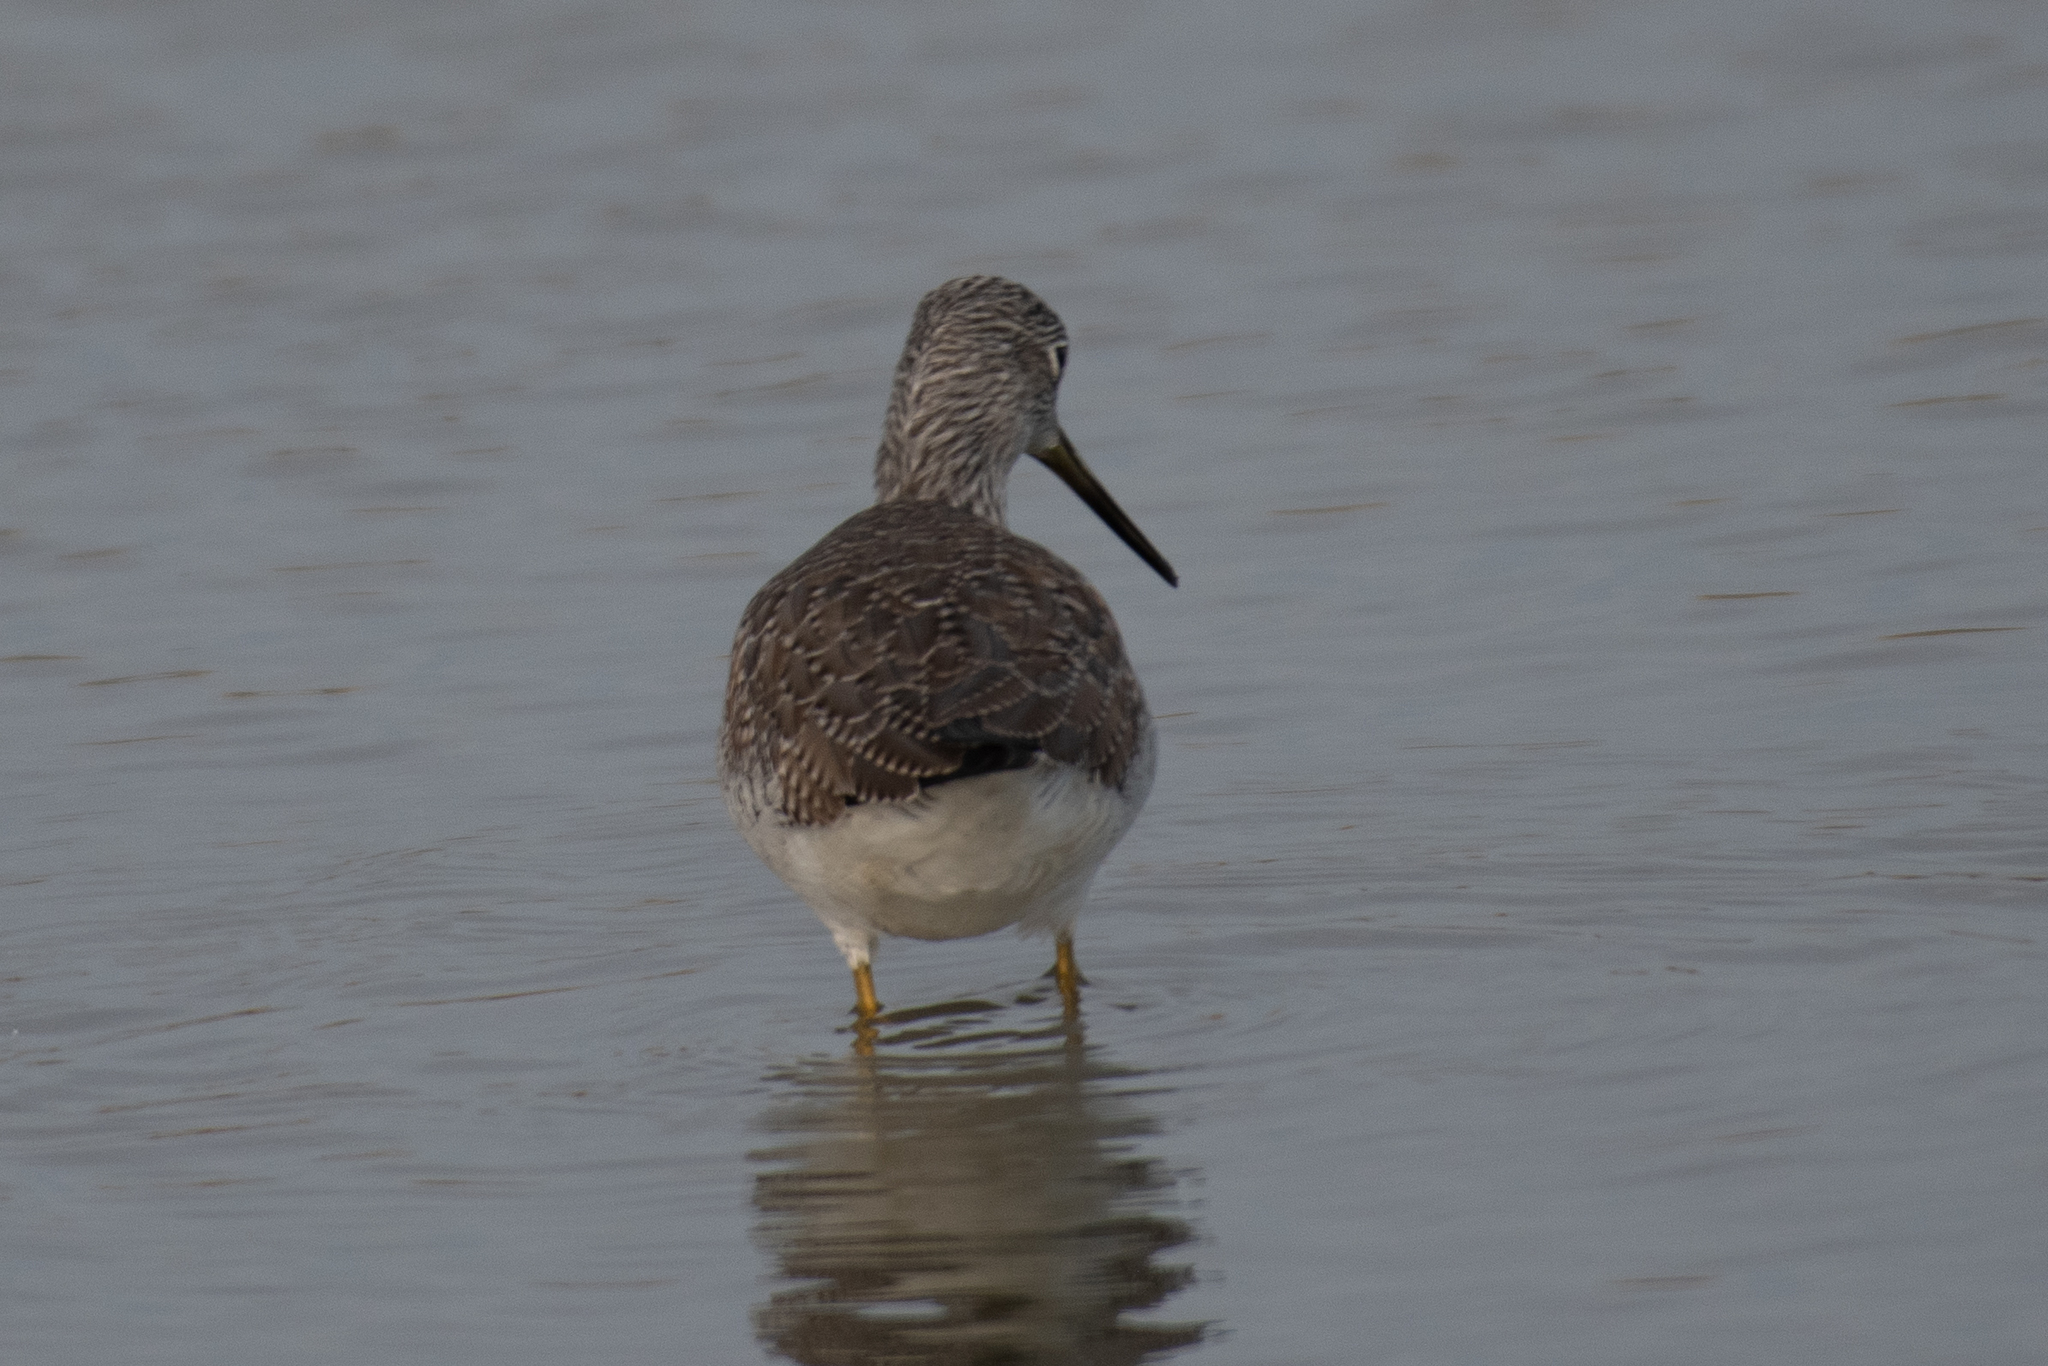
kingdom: Animalia
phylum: Chordata
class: Aves
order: Charadriiformes
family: Scolopacidae
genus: Tringa
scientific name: Tringa melanoleuca
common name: Greater yellowlegs
